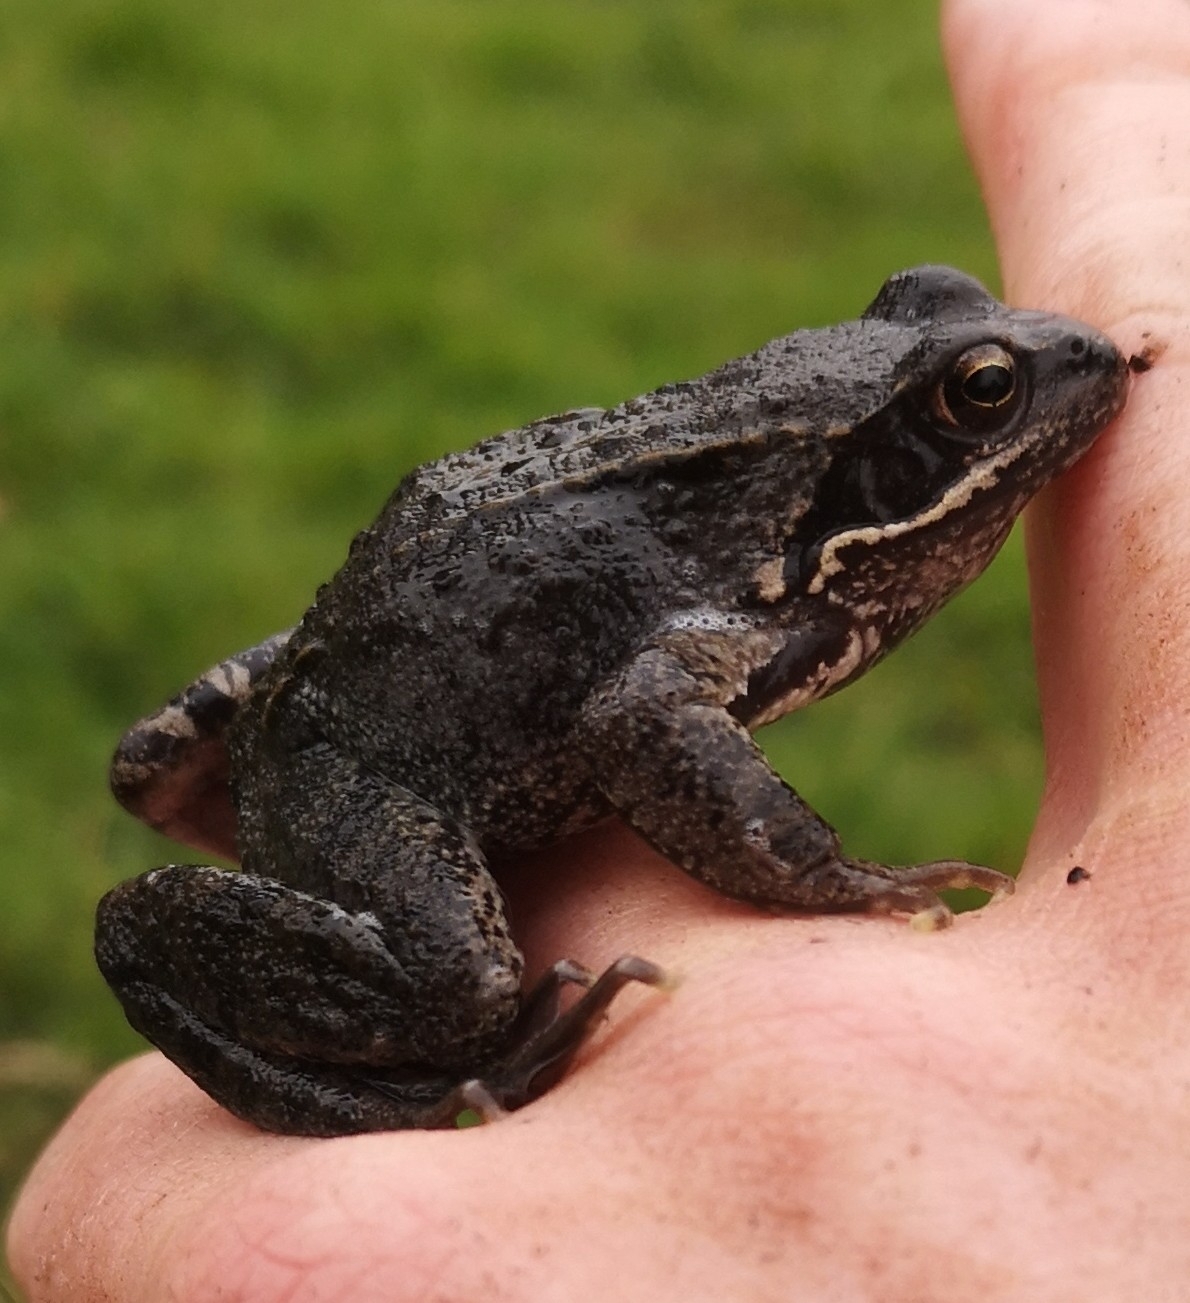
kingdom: Animalia
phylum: Chordata
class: Amphibia
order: Anura
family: Ranidae
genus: Rana
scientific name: Rana temporaria
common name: Common frog
